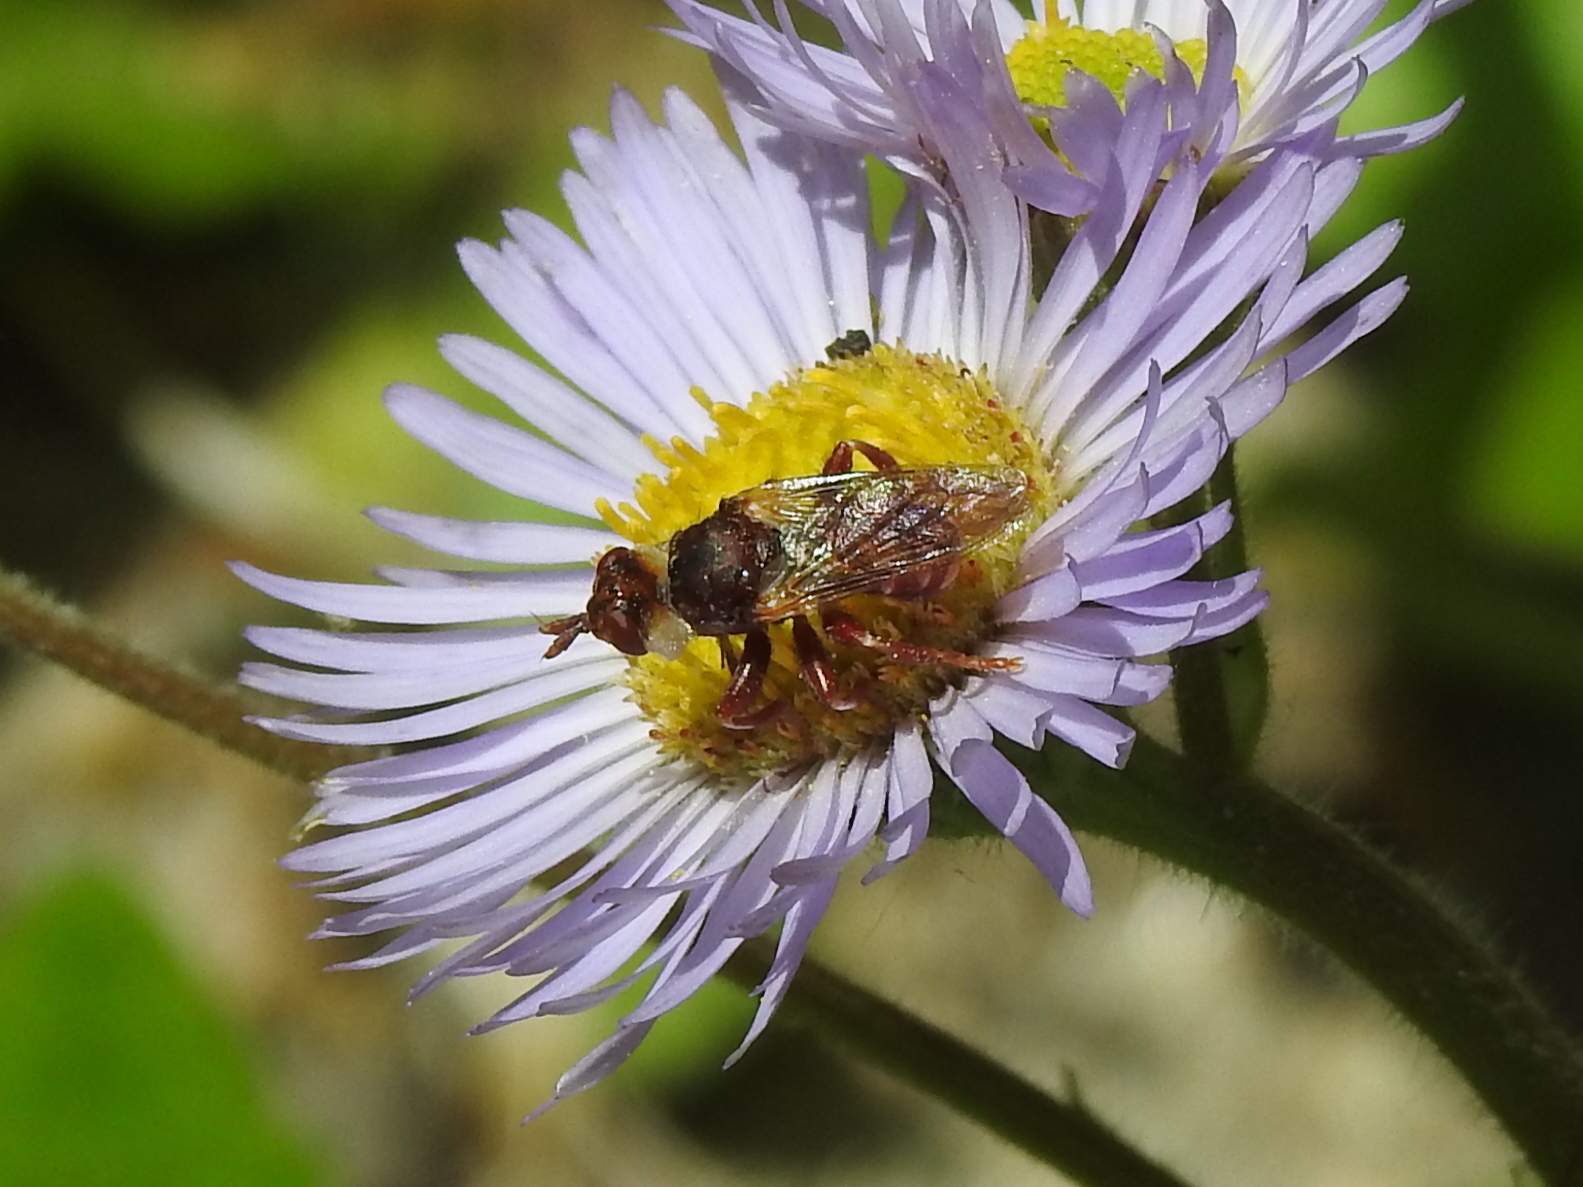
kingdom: Animalia
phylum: Arthropoda
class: Insecta
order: Diptera
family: Conopidae
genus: Myopa
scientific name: Myopa clausa
